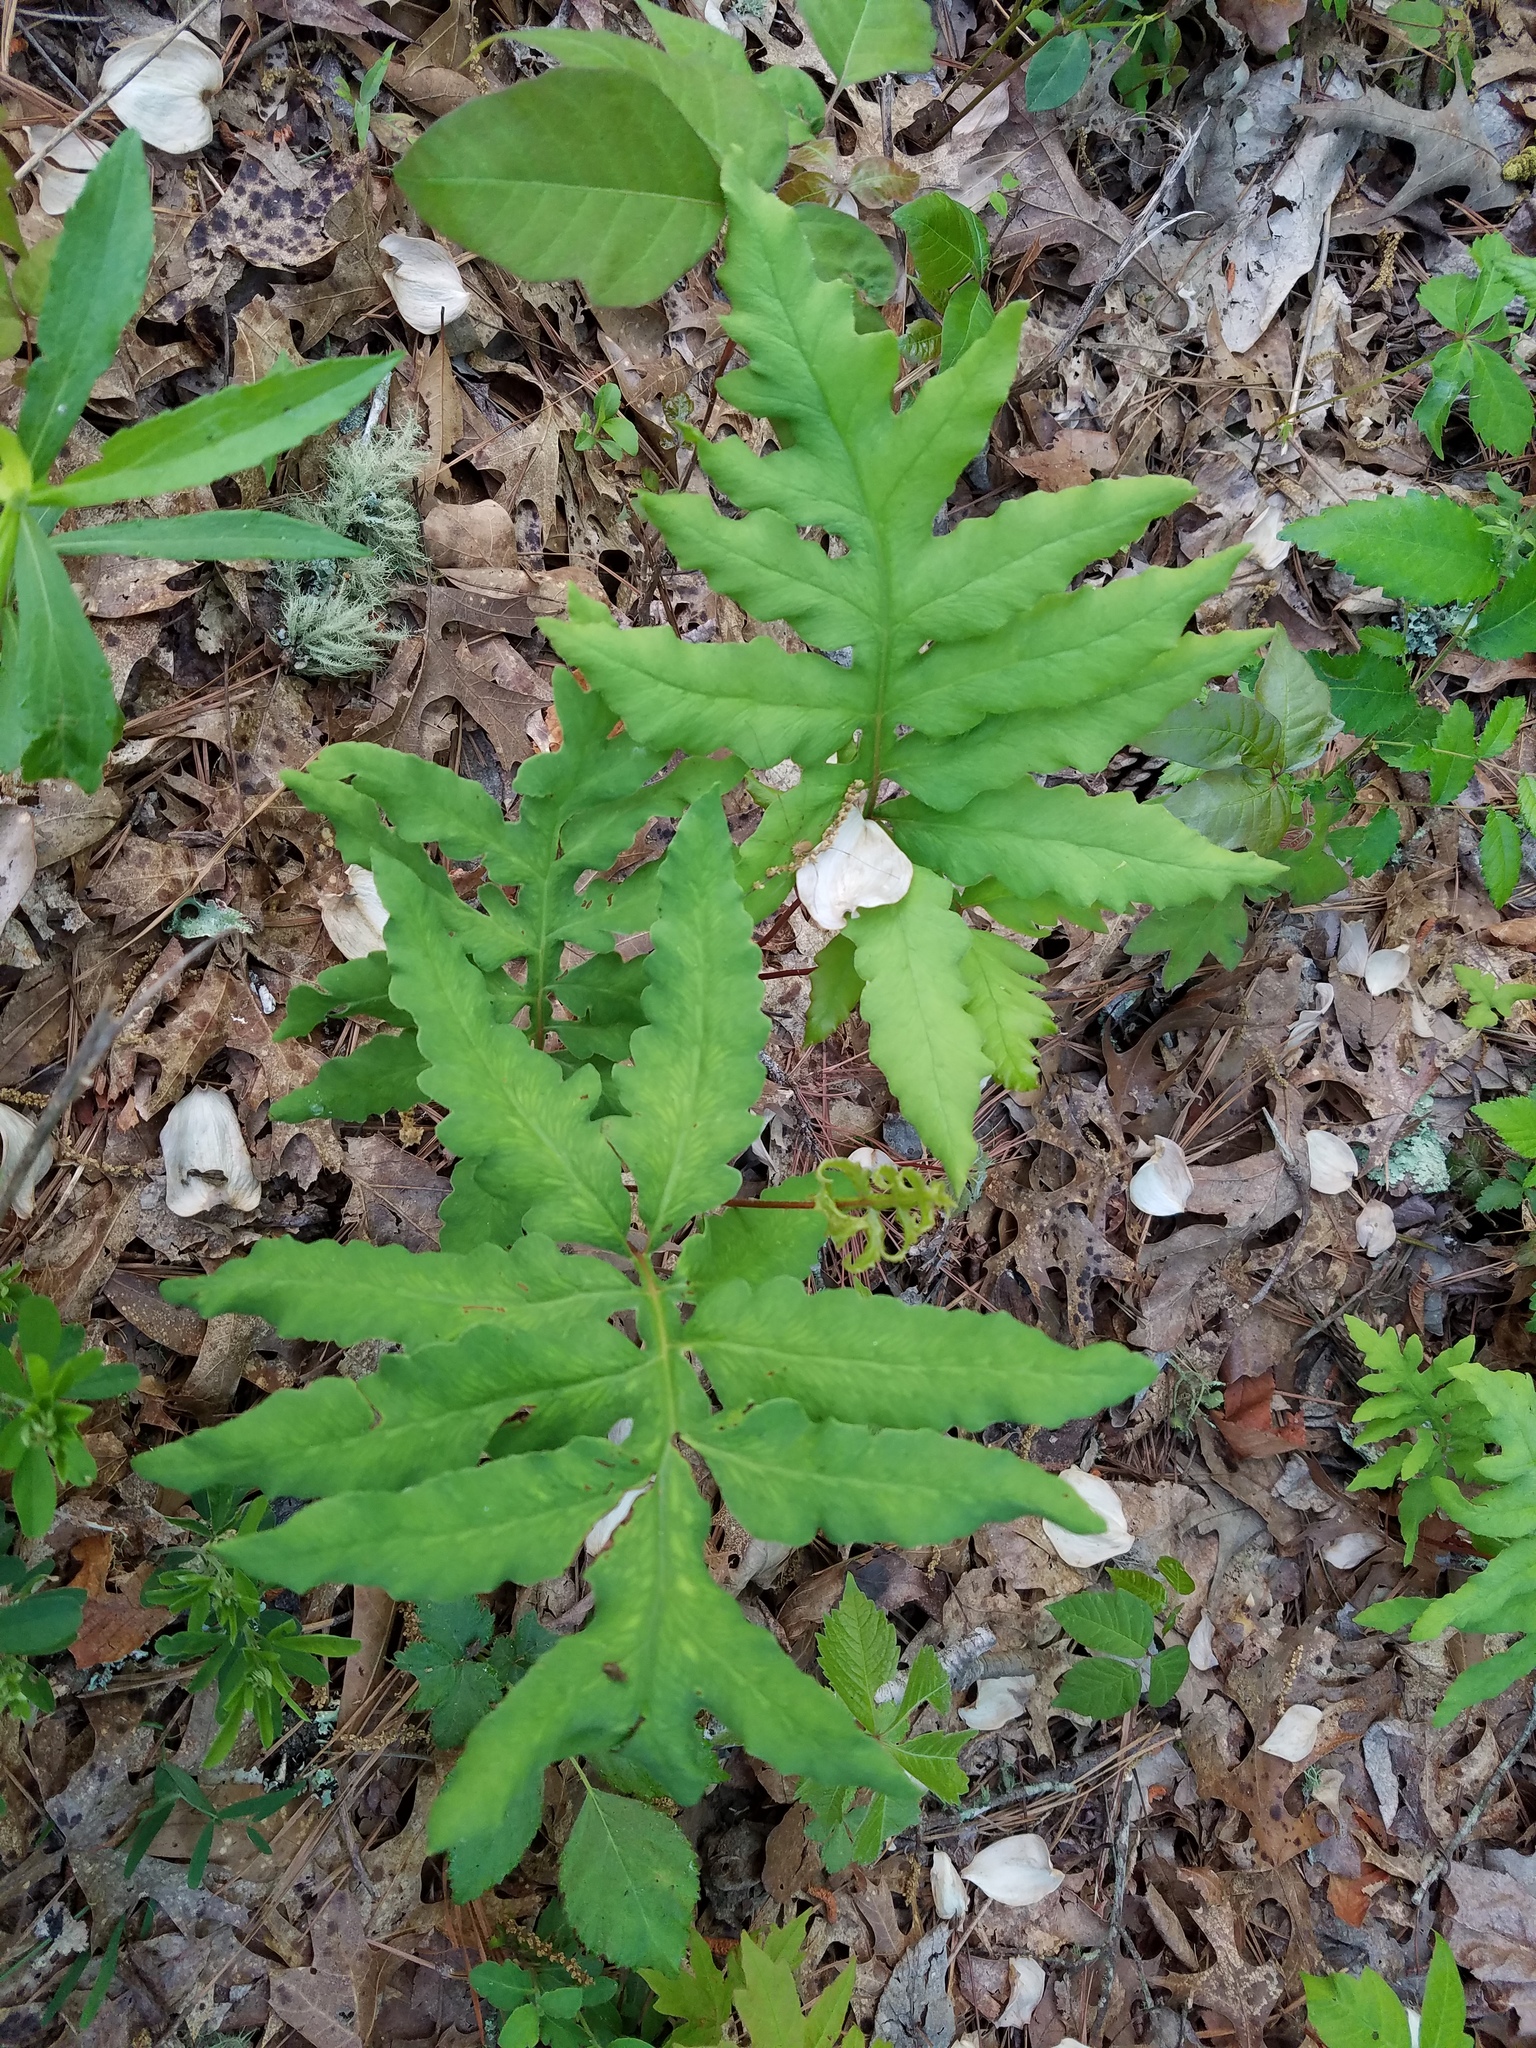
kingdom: Plantae
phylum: Tracheophyta
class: Polypodiopsida
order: Polypodiales
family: Onocleaceae
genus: Onoclea
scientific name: Onoclea sensibilis
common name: Sensitive fern
